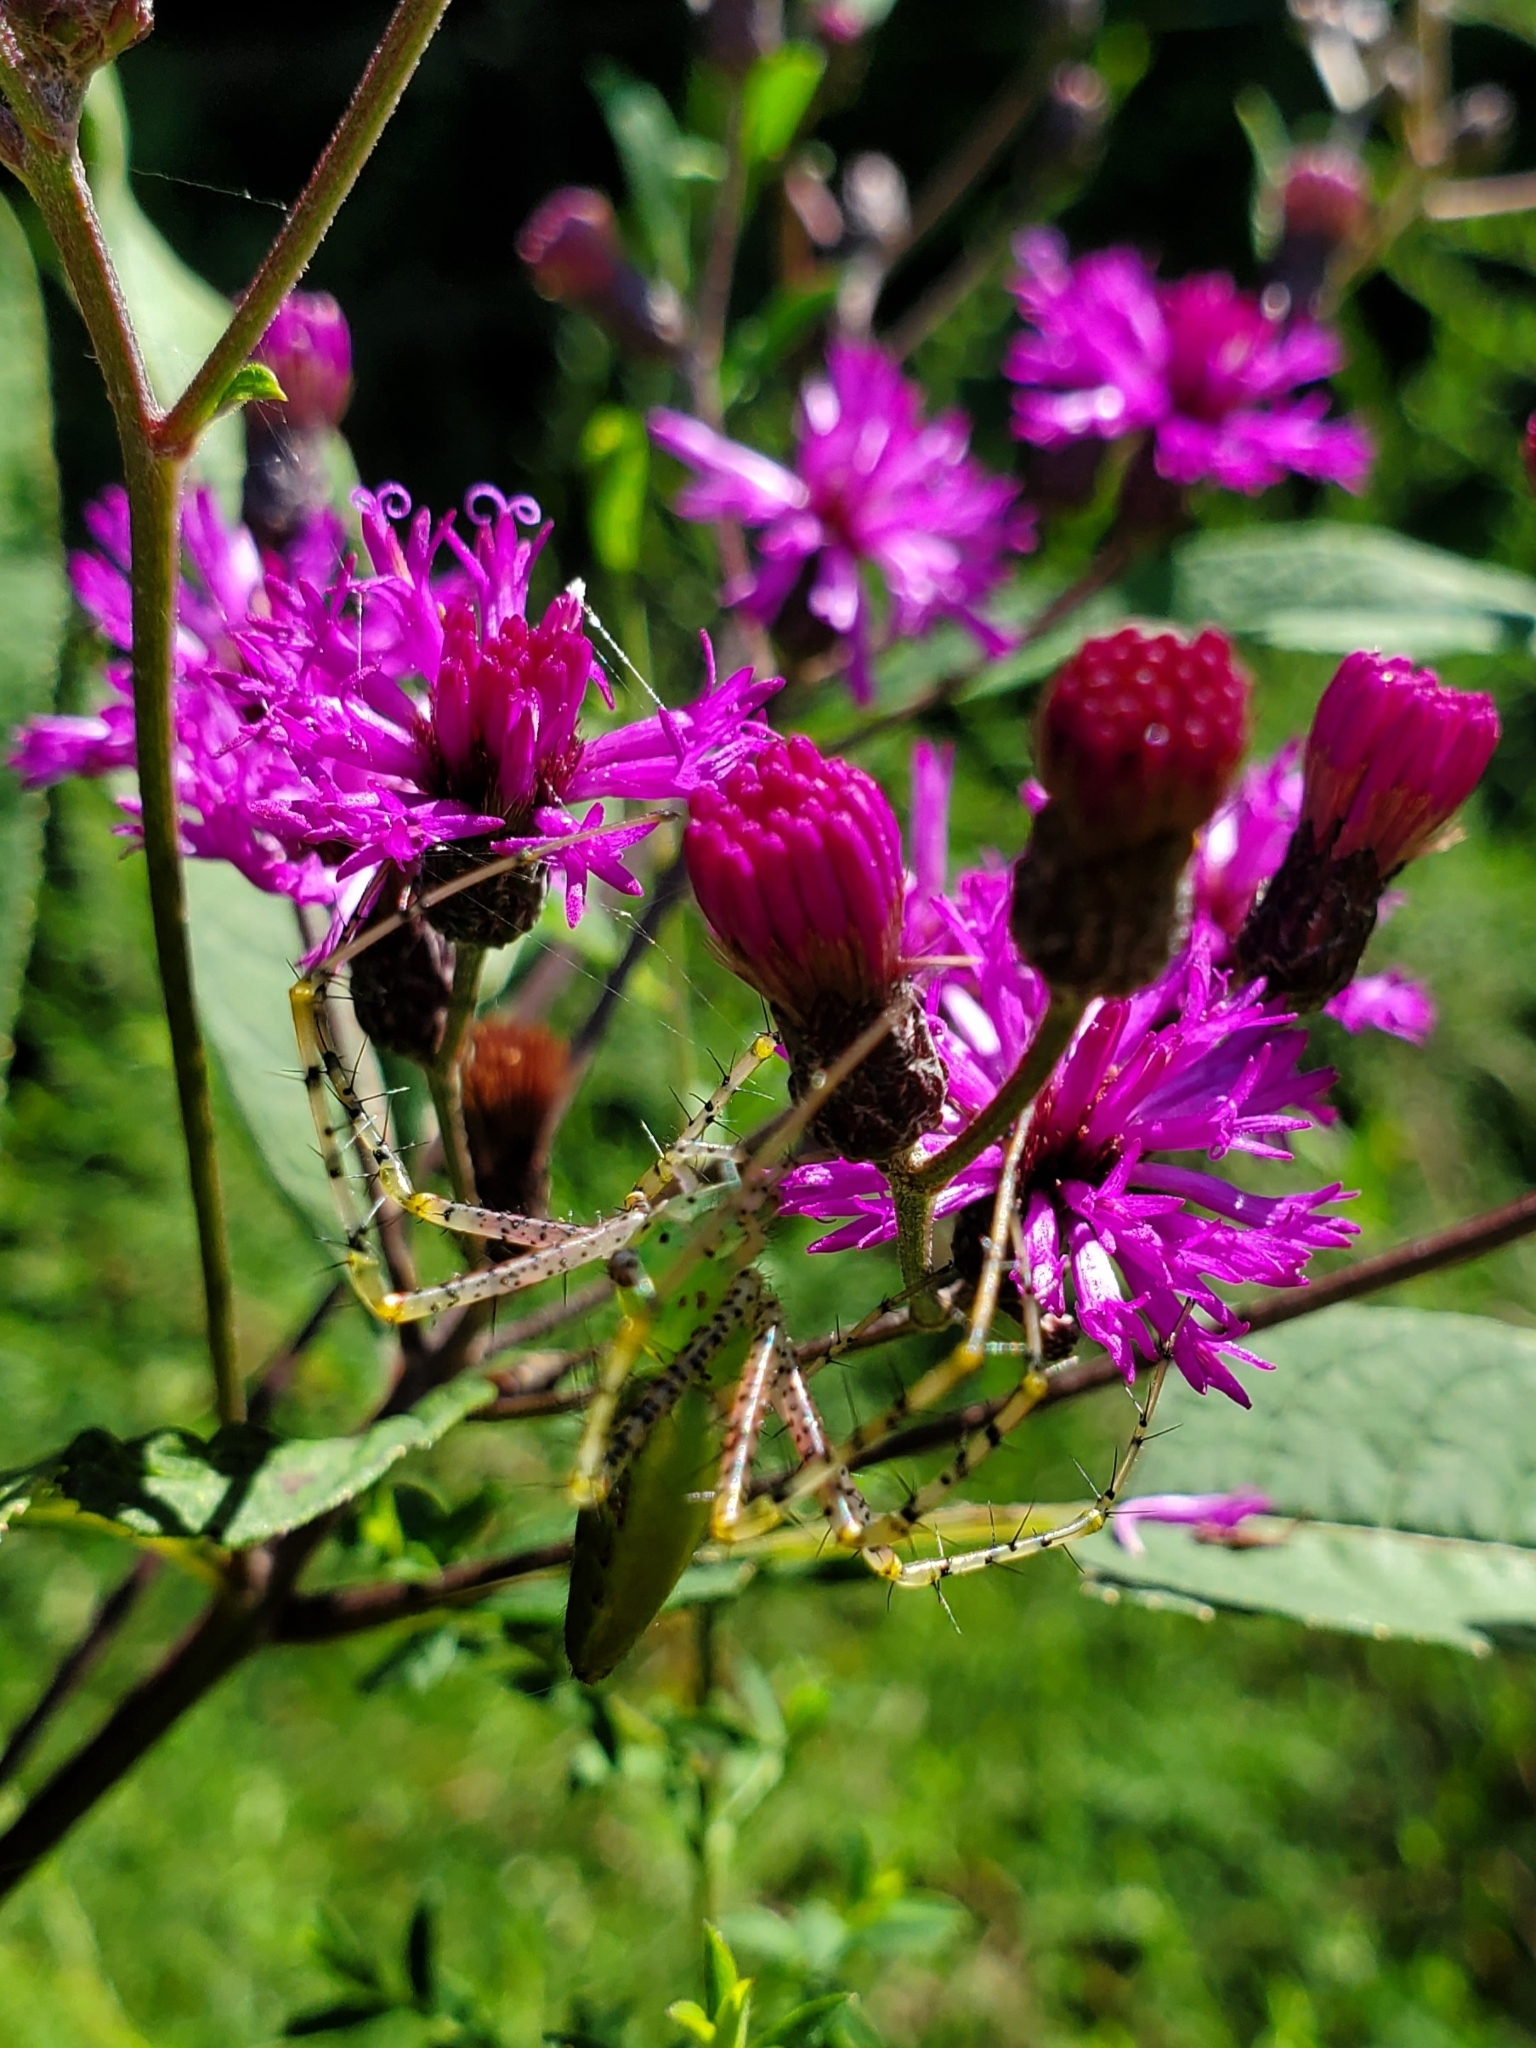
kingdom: Animalia
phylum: Arthropoda
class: Arachnida
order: Araneae
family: Oxyopidae
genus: Peucetia
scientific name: Peucetia viridans
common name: Lynx spiders
